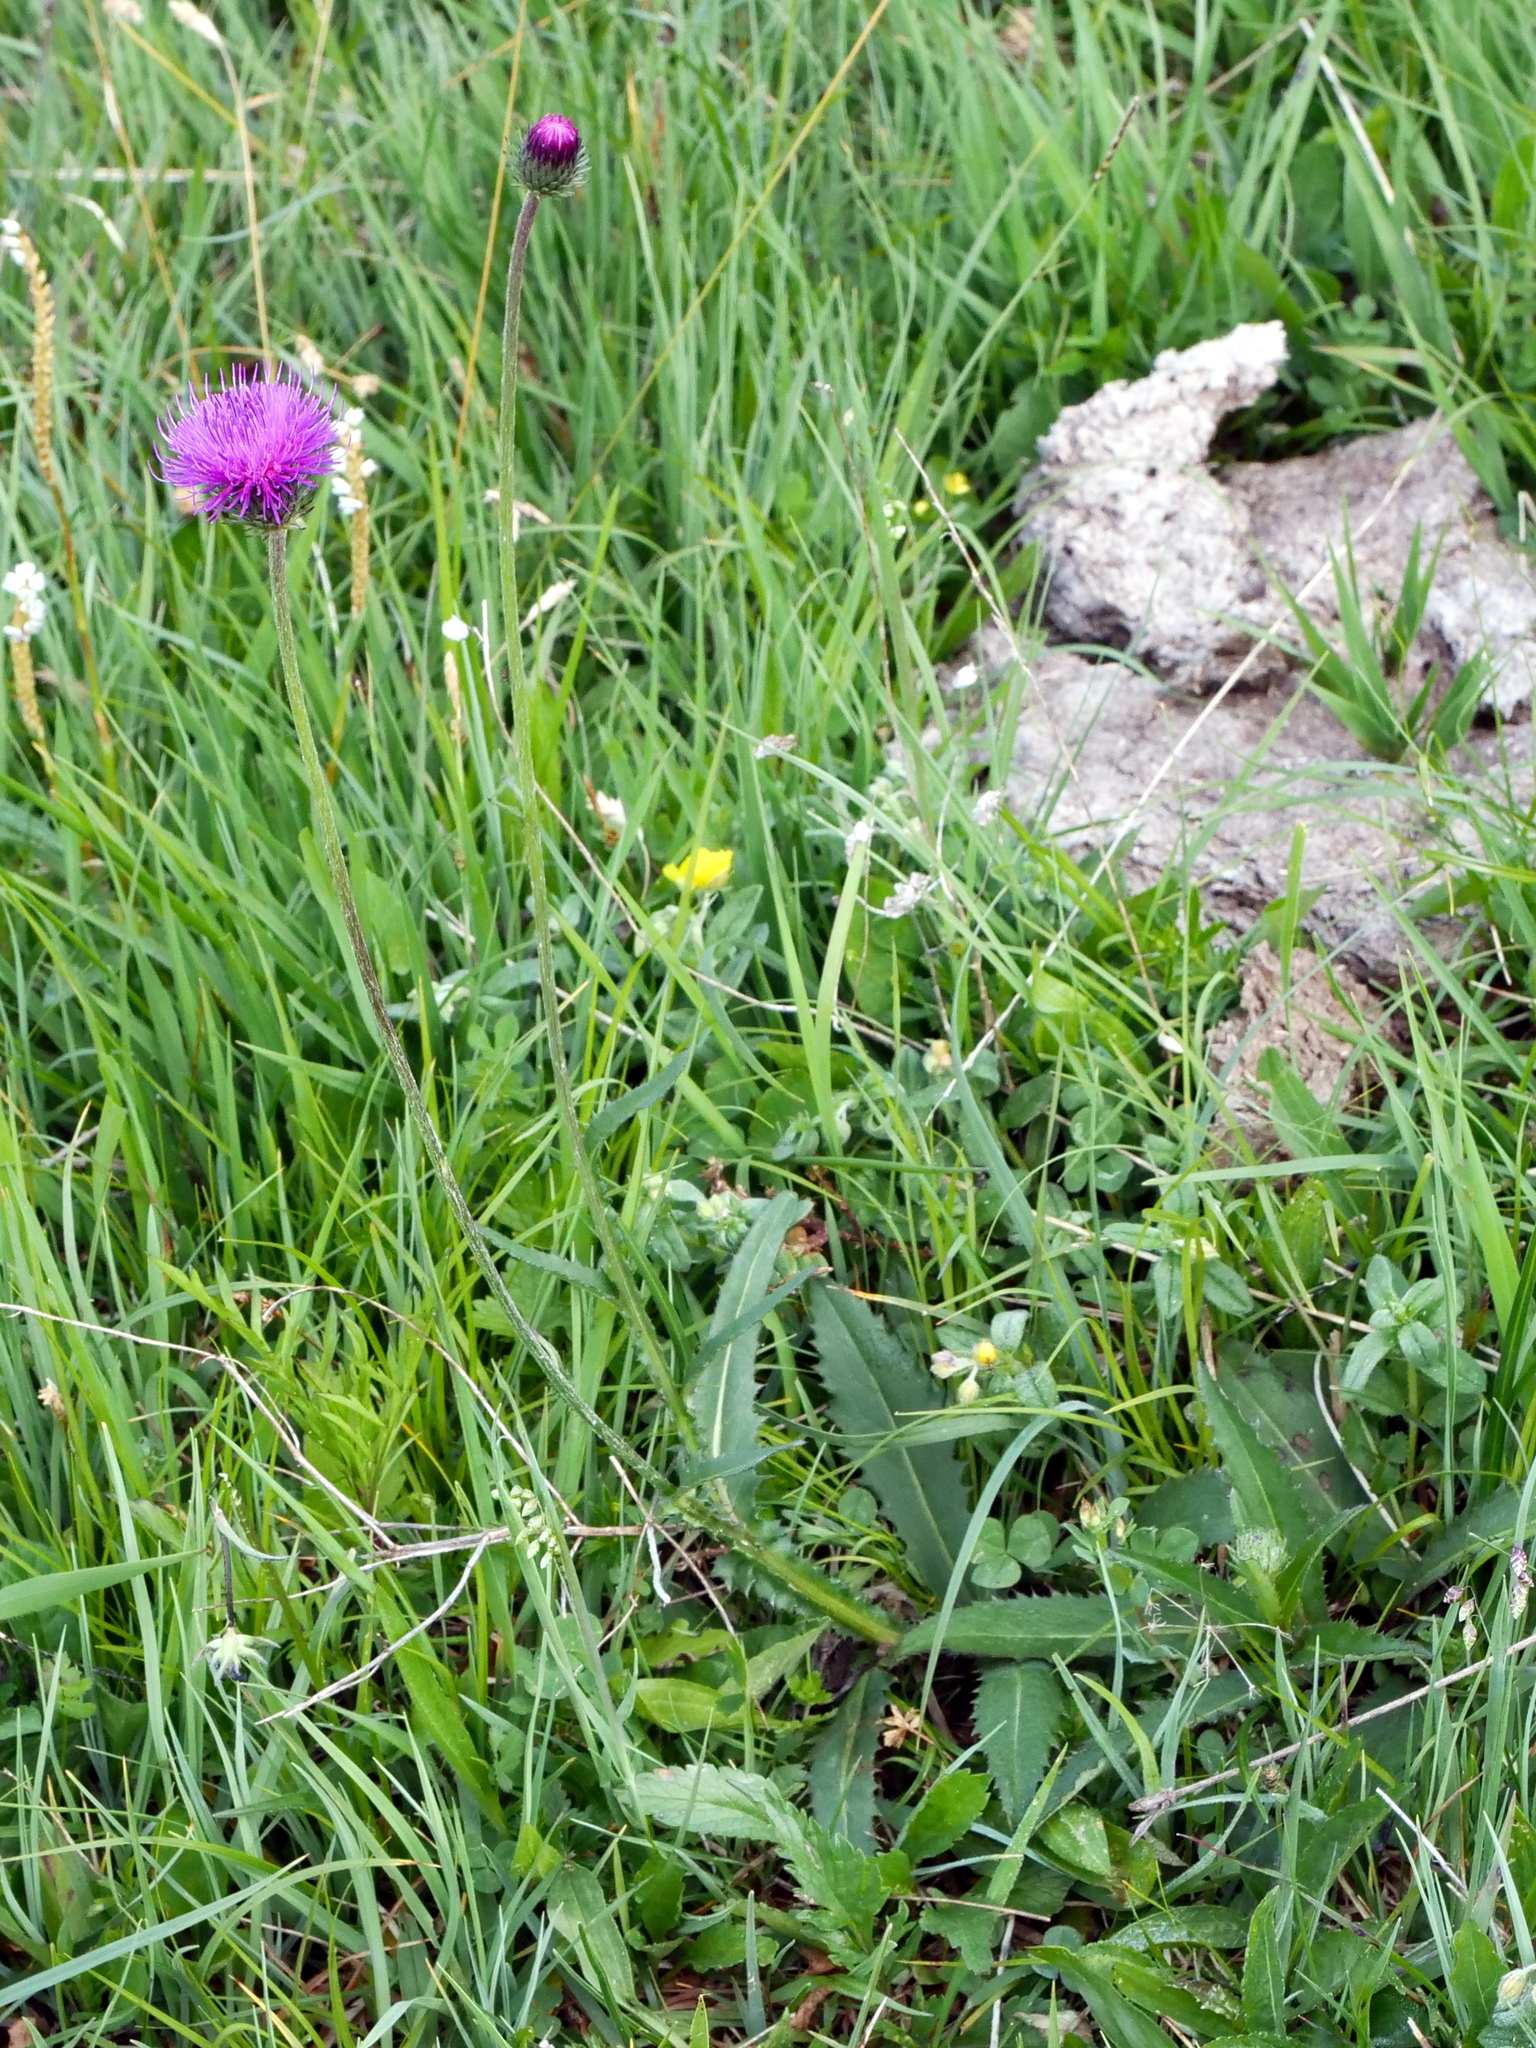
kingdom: Plantae
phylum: Tracheophyta
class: Magnoliopsida
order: Asterales
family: Asteraceae
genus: Carduus
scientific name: Carduus defloratus
